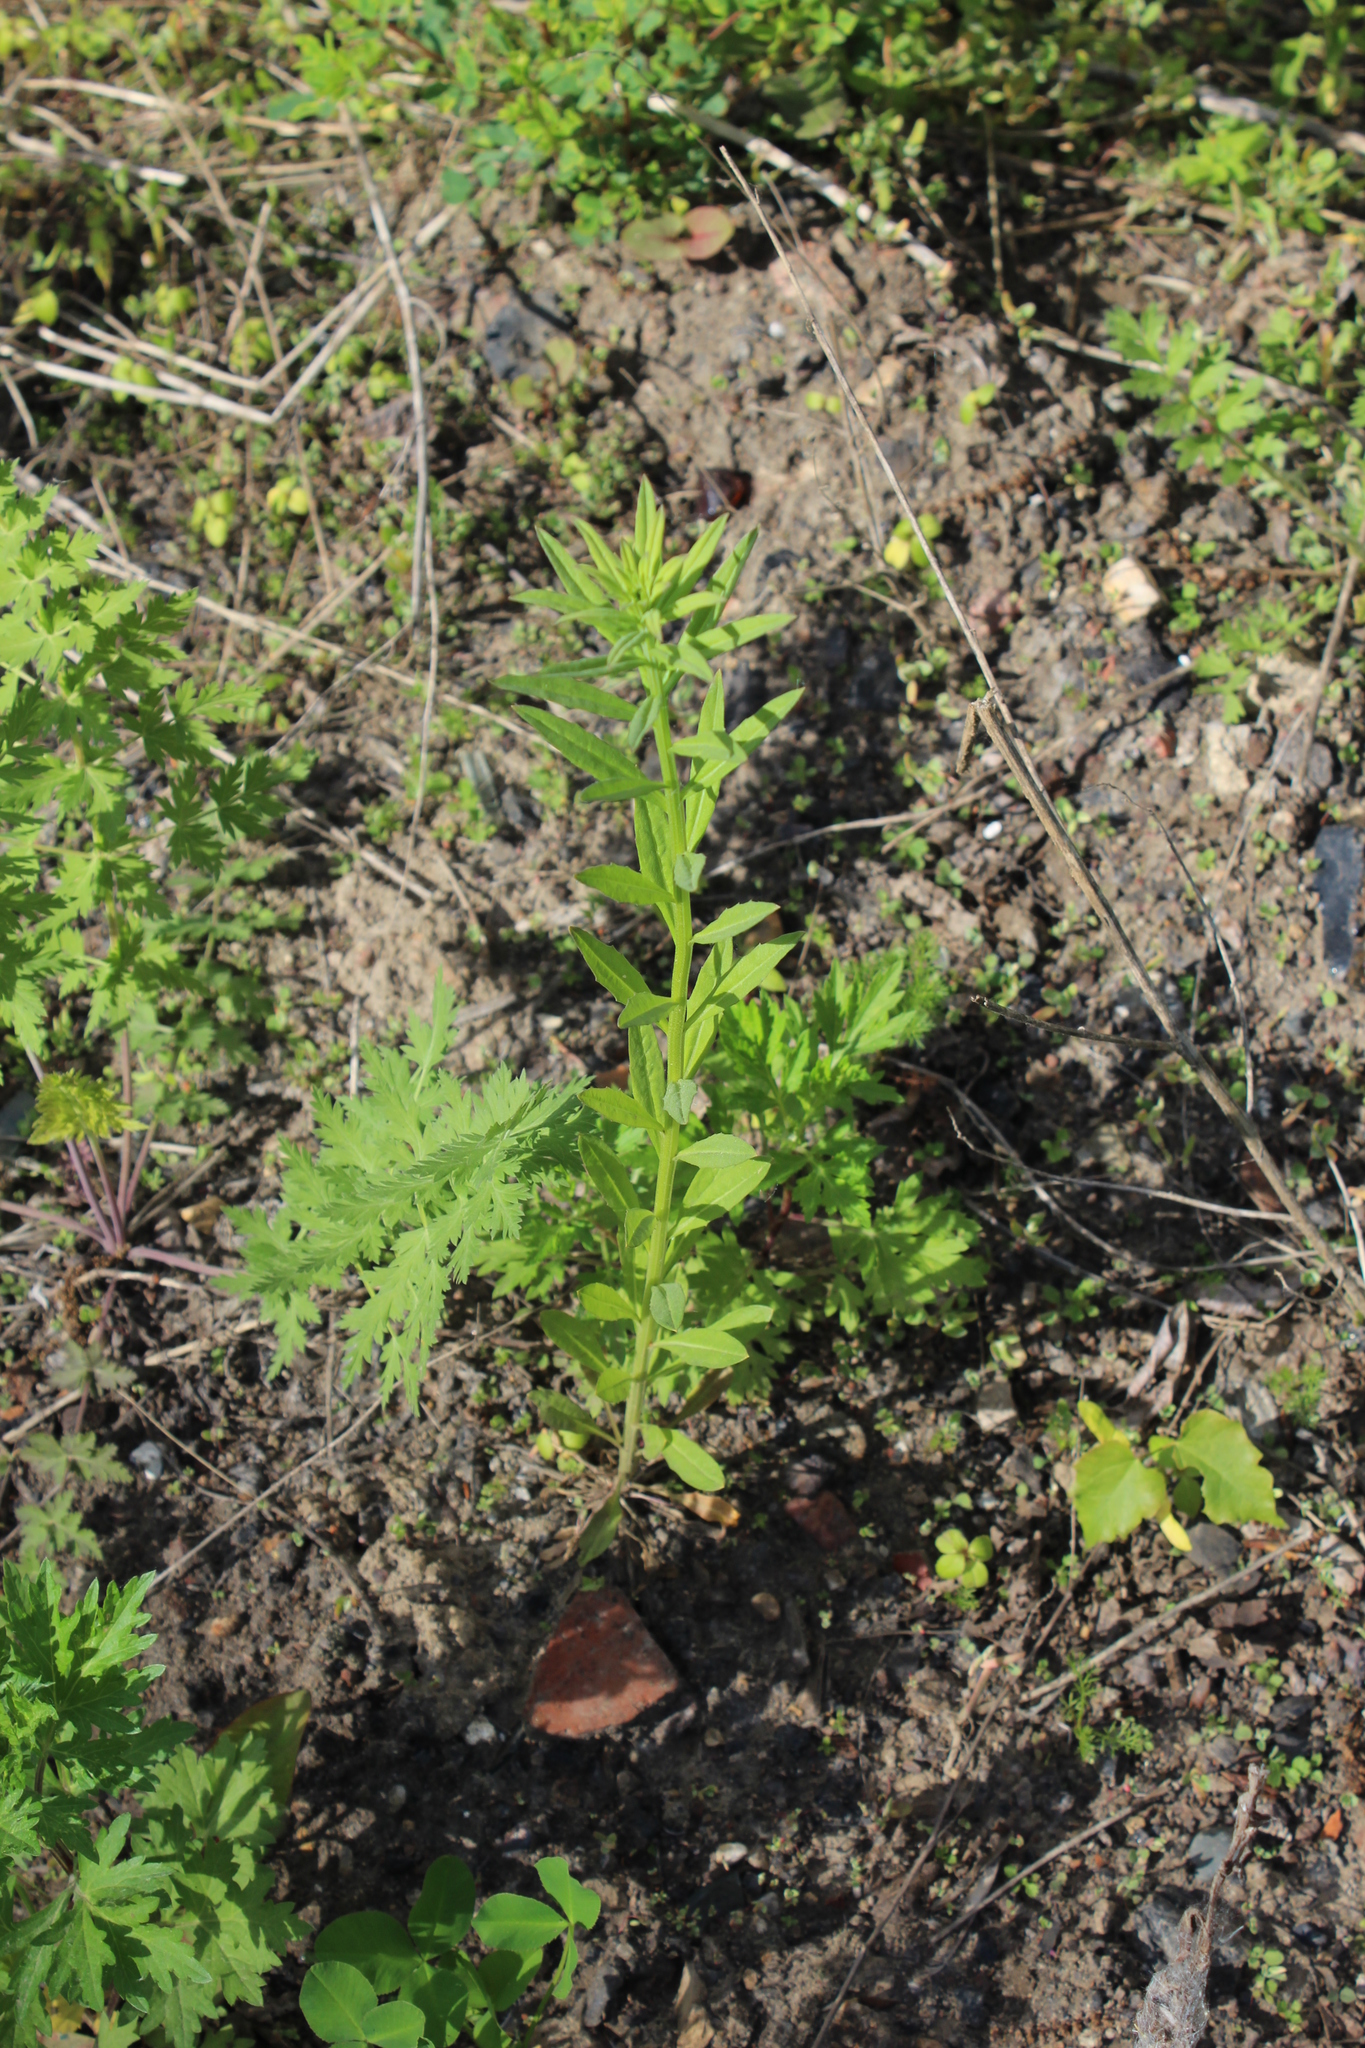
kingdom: Plantae
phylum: Tracheophyta
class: Magnoliopsida
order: Brassicales
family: Brassicaceae
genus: Erysimum
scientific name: Erysimum hieraciifolium
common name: European wallflower
